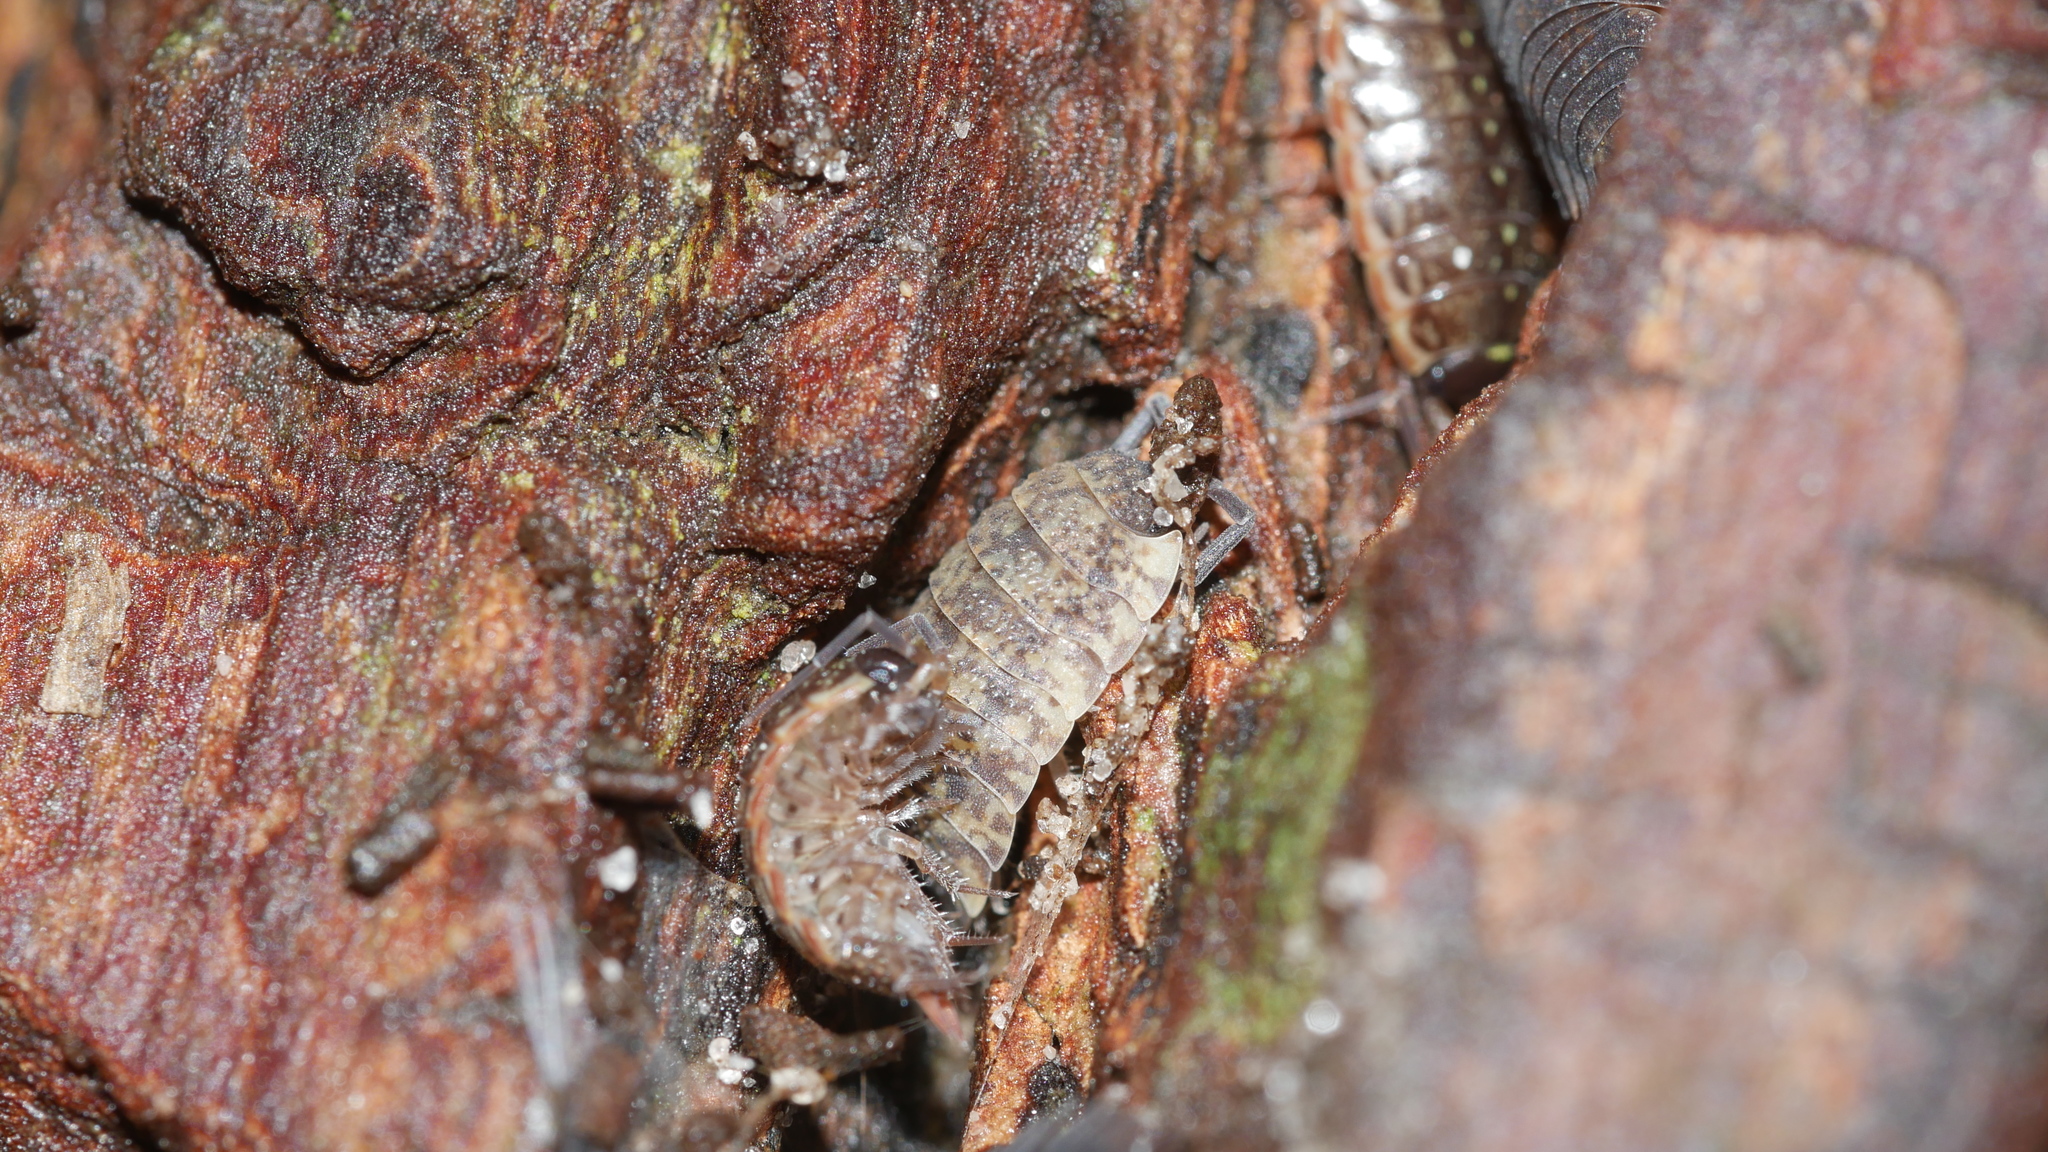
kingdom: Animalia
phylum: Arthropoda
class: Malacostraca
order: Isopoda
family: Porcellionidae
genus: Porcellio
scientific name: Porcellio scaber
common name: Common rough woodlouse
